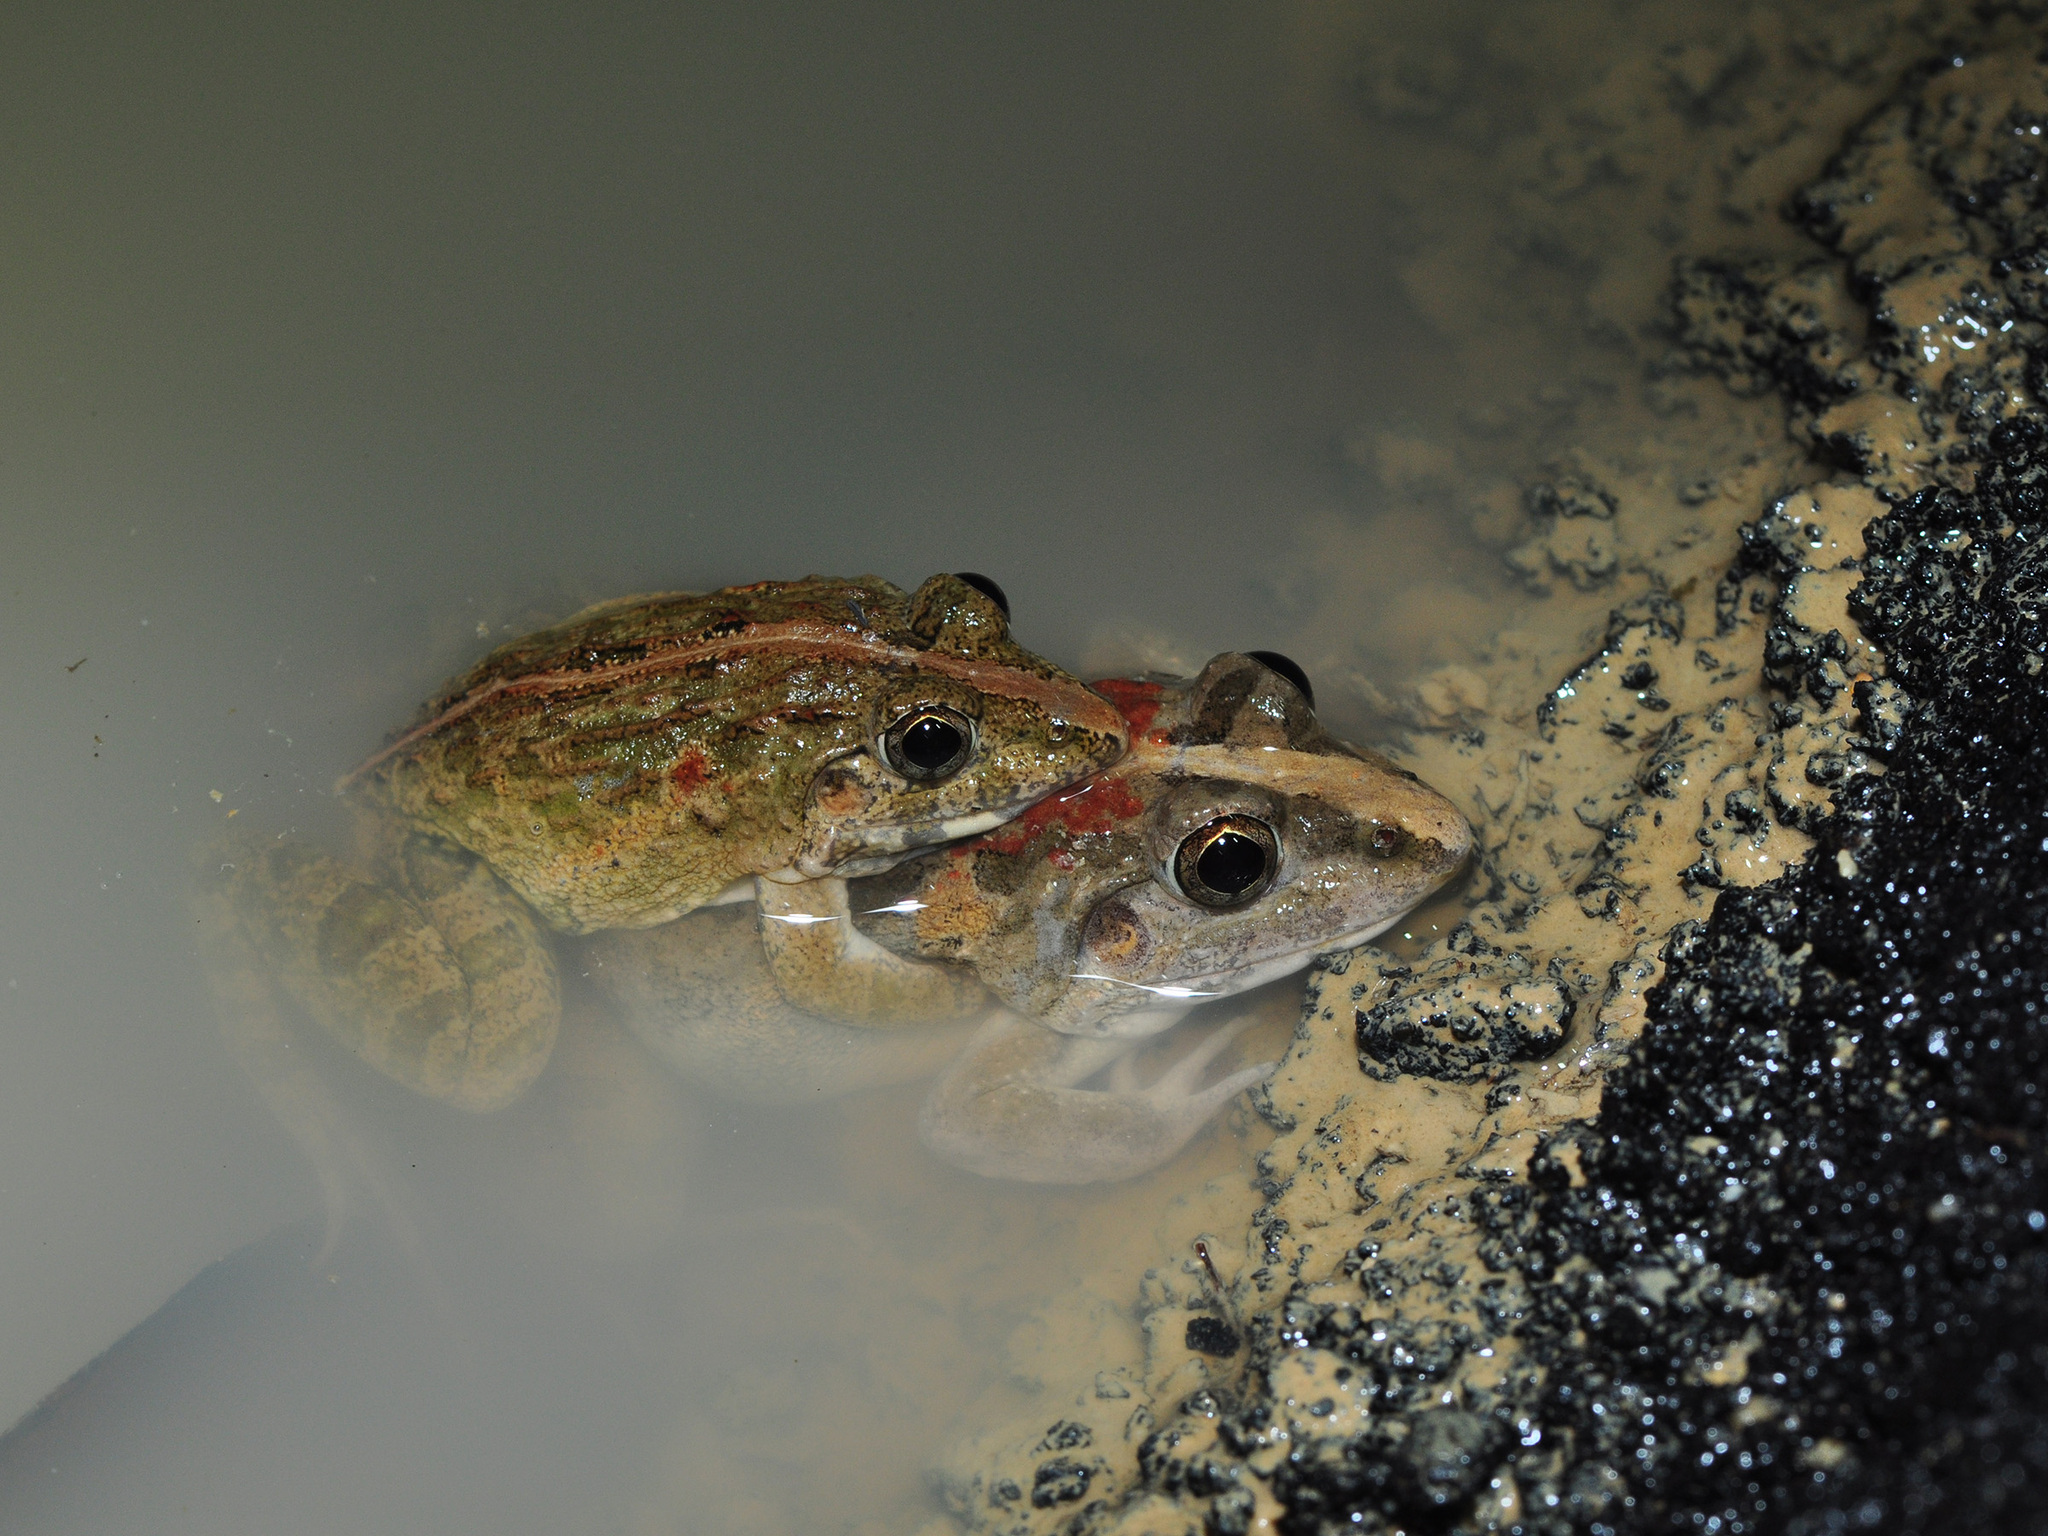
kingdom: Animalia
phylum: Chordata
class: Amphibia
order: Anura
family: Dicroglossidae
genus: Fejervarya
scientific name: Fejervarya limnocharis
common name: Asian grass frog/common pond frog/field frog/grass frog/indian rice frog
